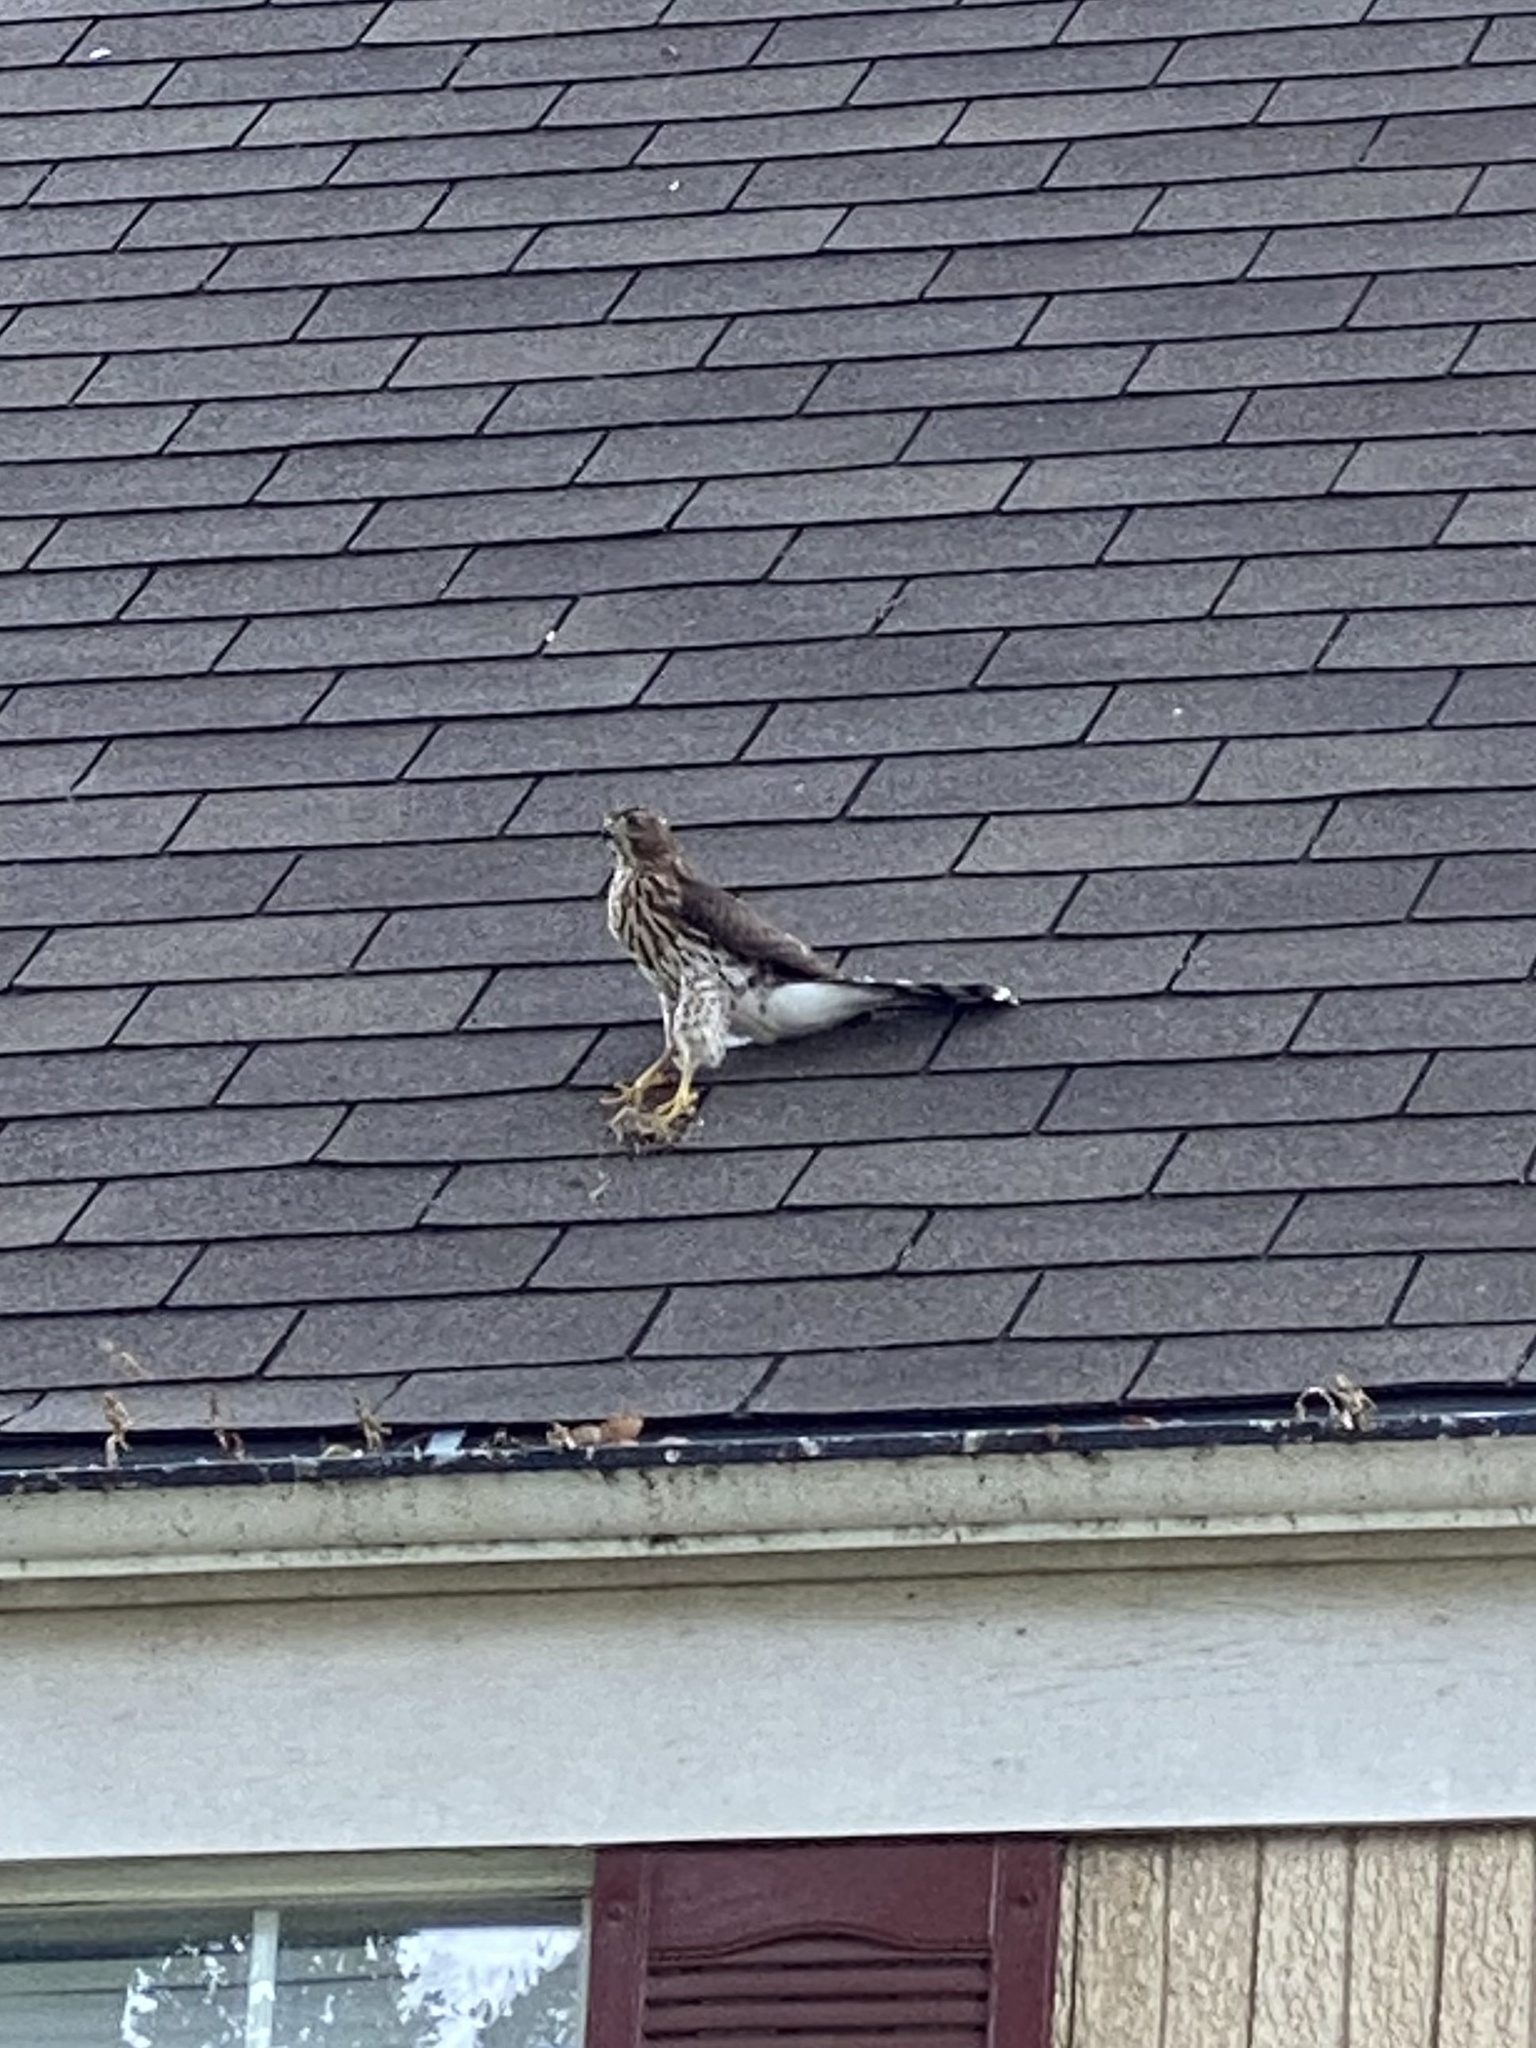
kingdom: Animalia
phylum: Chordata
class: Aves
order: Accipitriformes
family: Accipitridae
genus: Accipiter
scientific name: Accipiter cooperii
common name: Cooper's hawk
